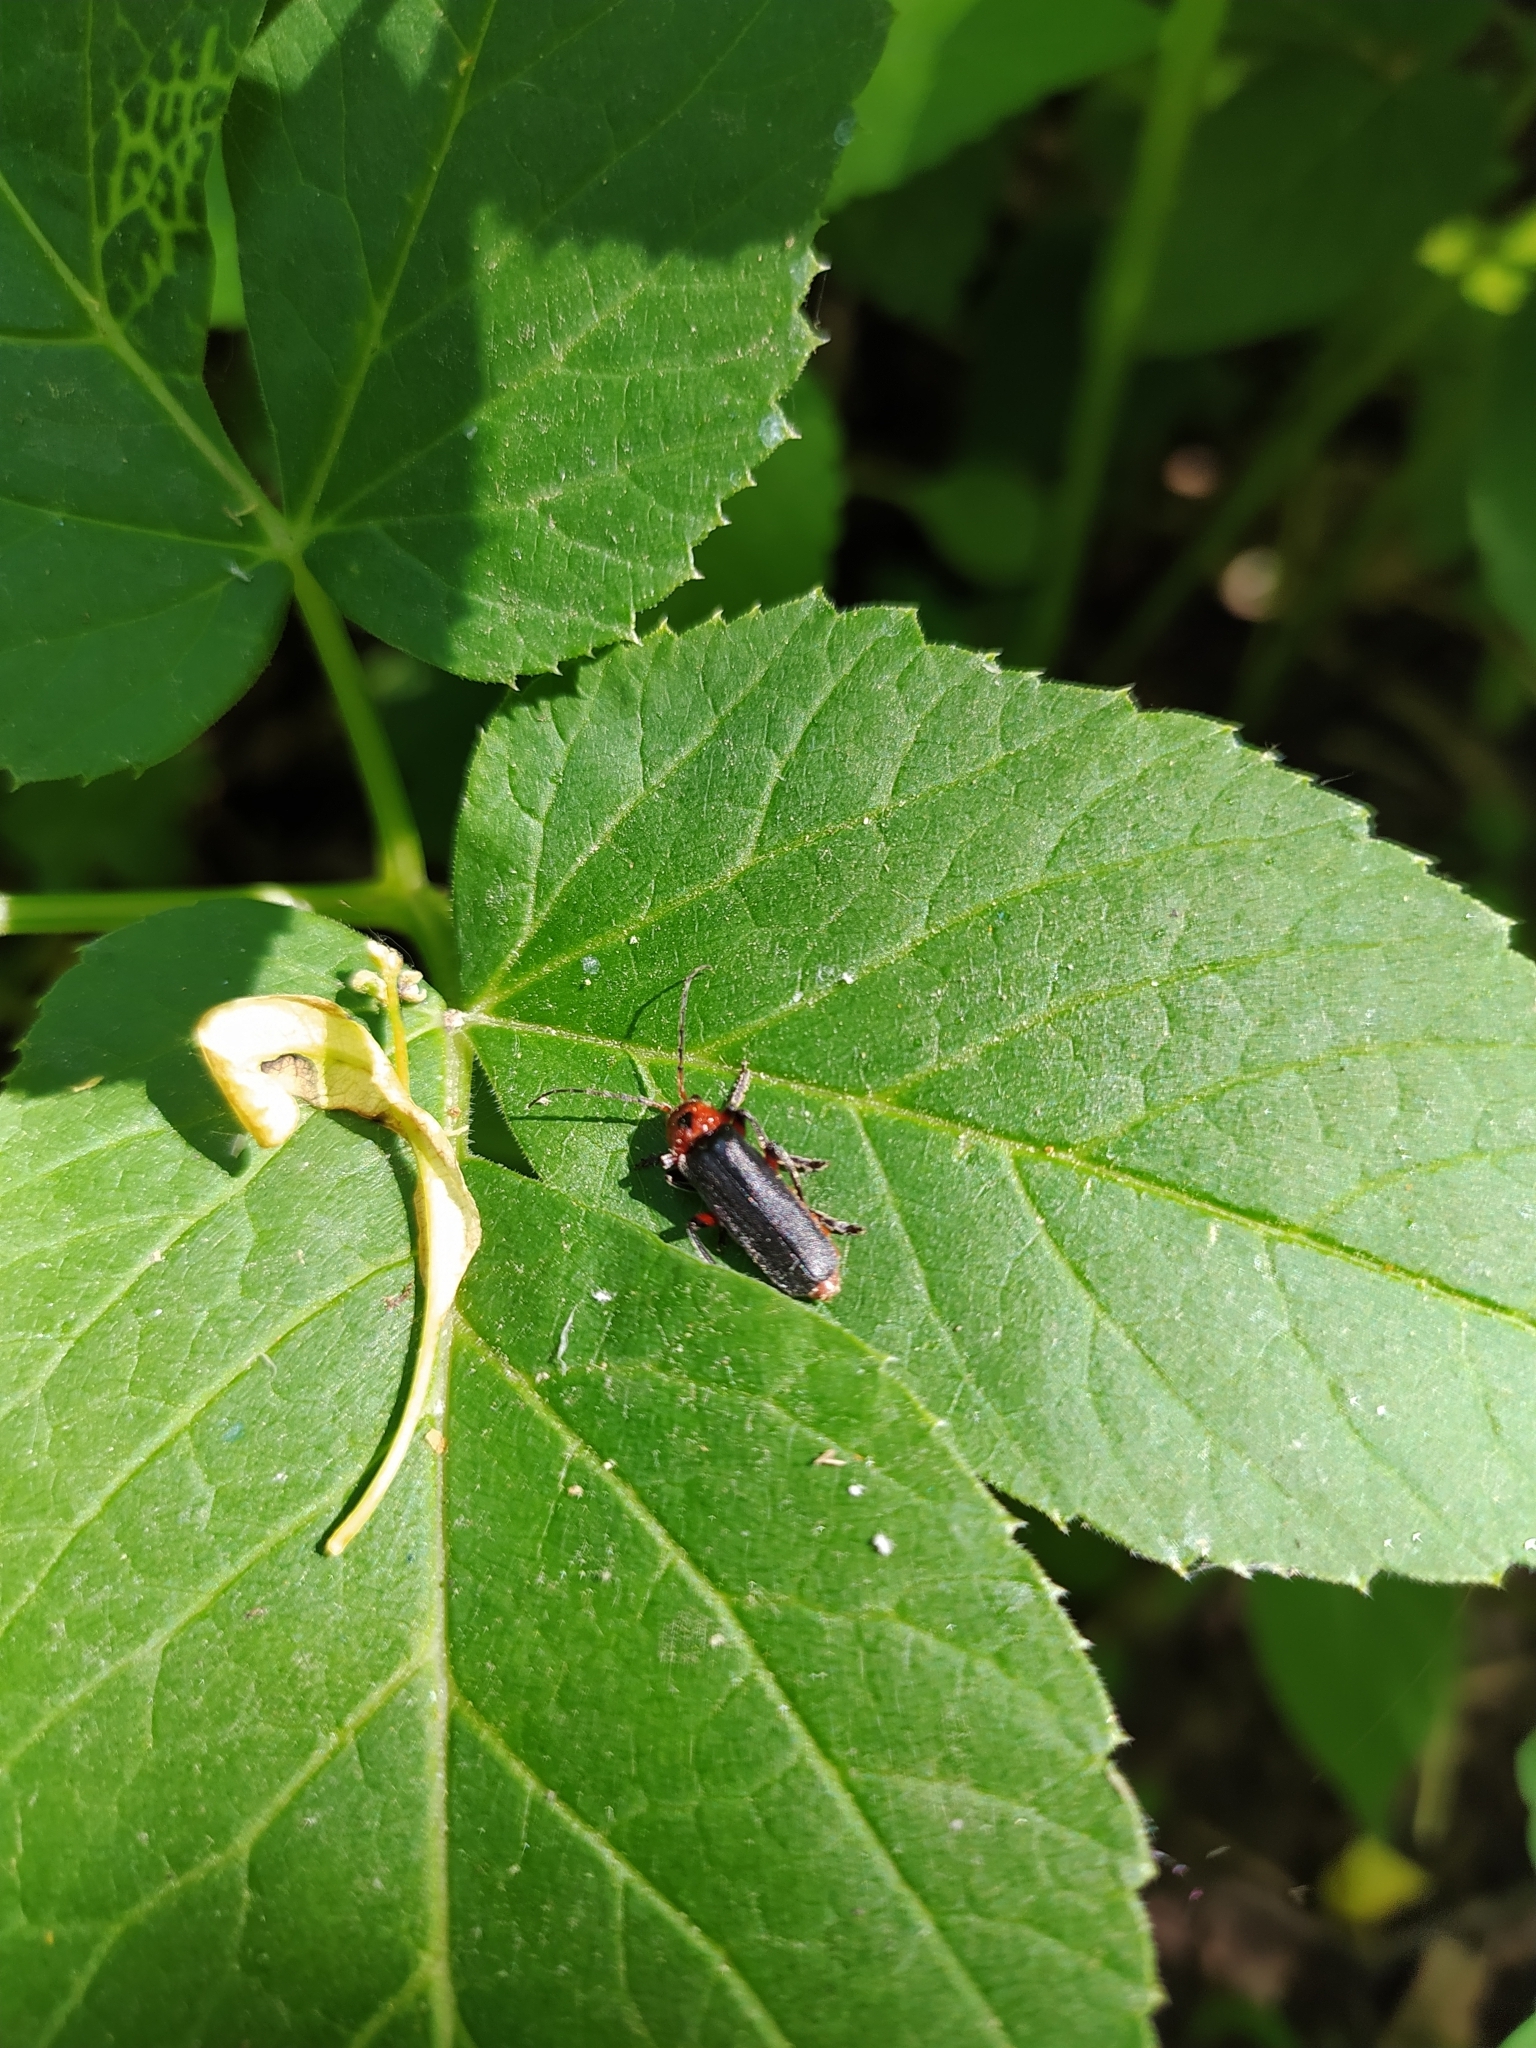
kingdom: Animalia
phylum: Arthropoda
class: Insecta
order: Coleoptera
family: Cantharidae
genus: Cantharis
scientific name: Cantharis rustica
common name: Soldier beetle
